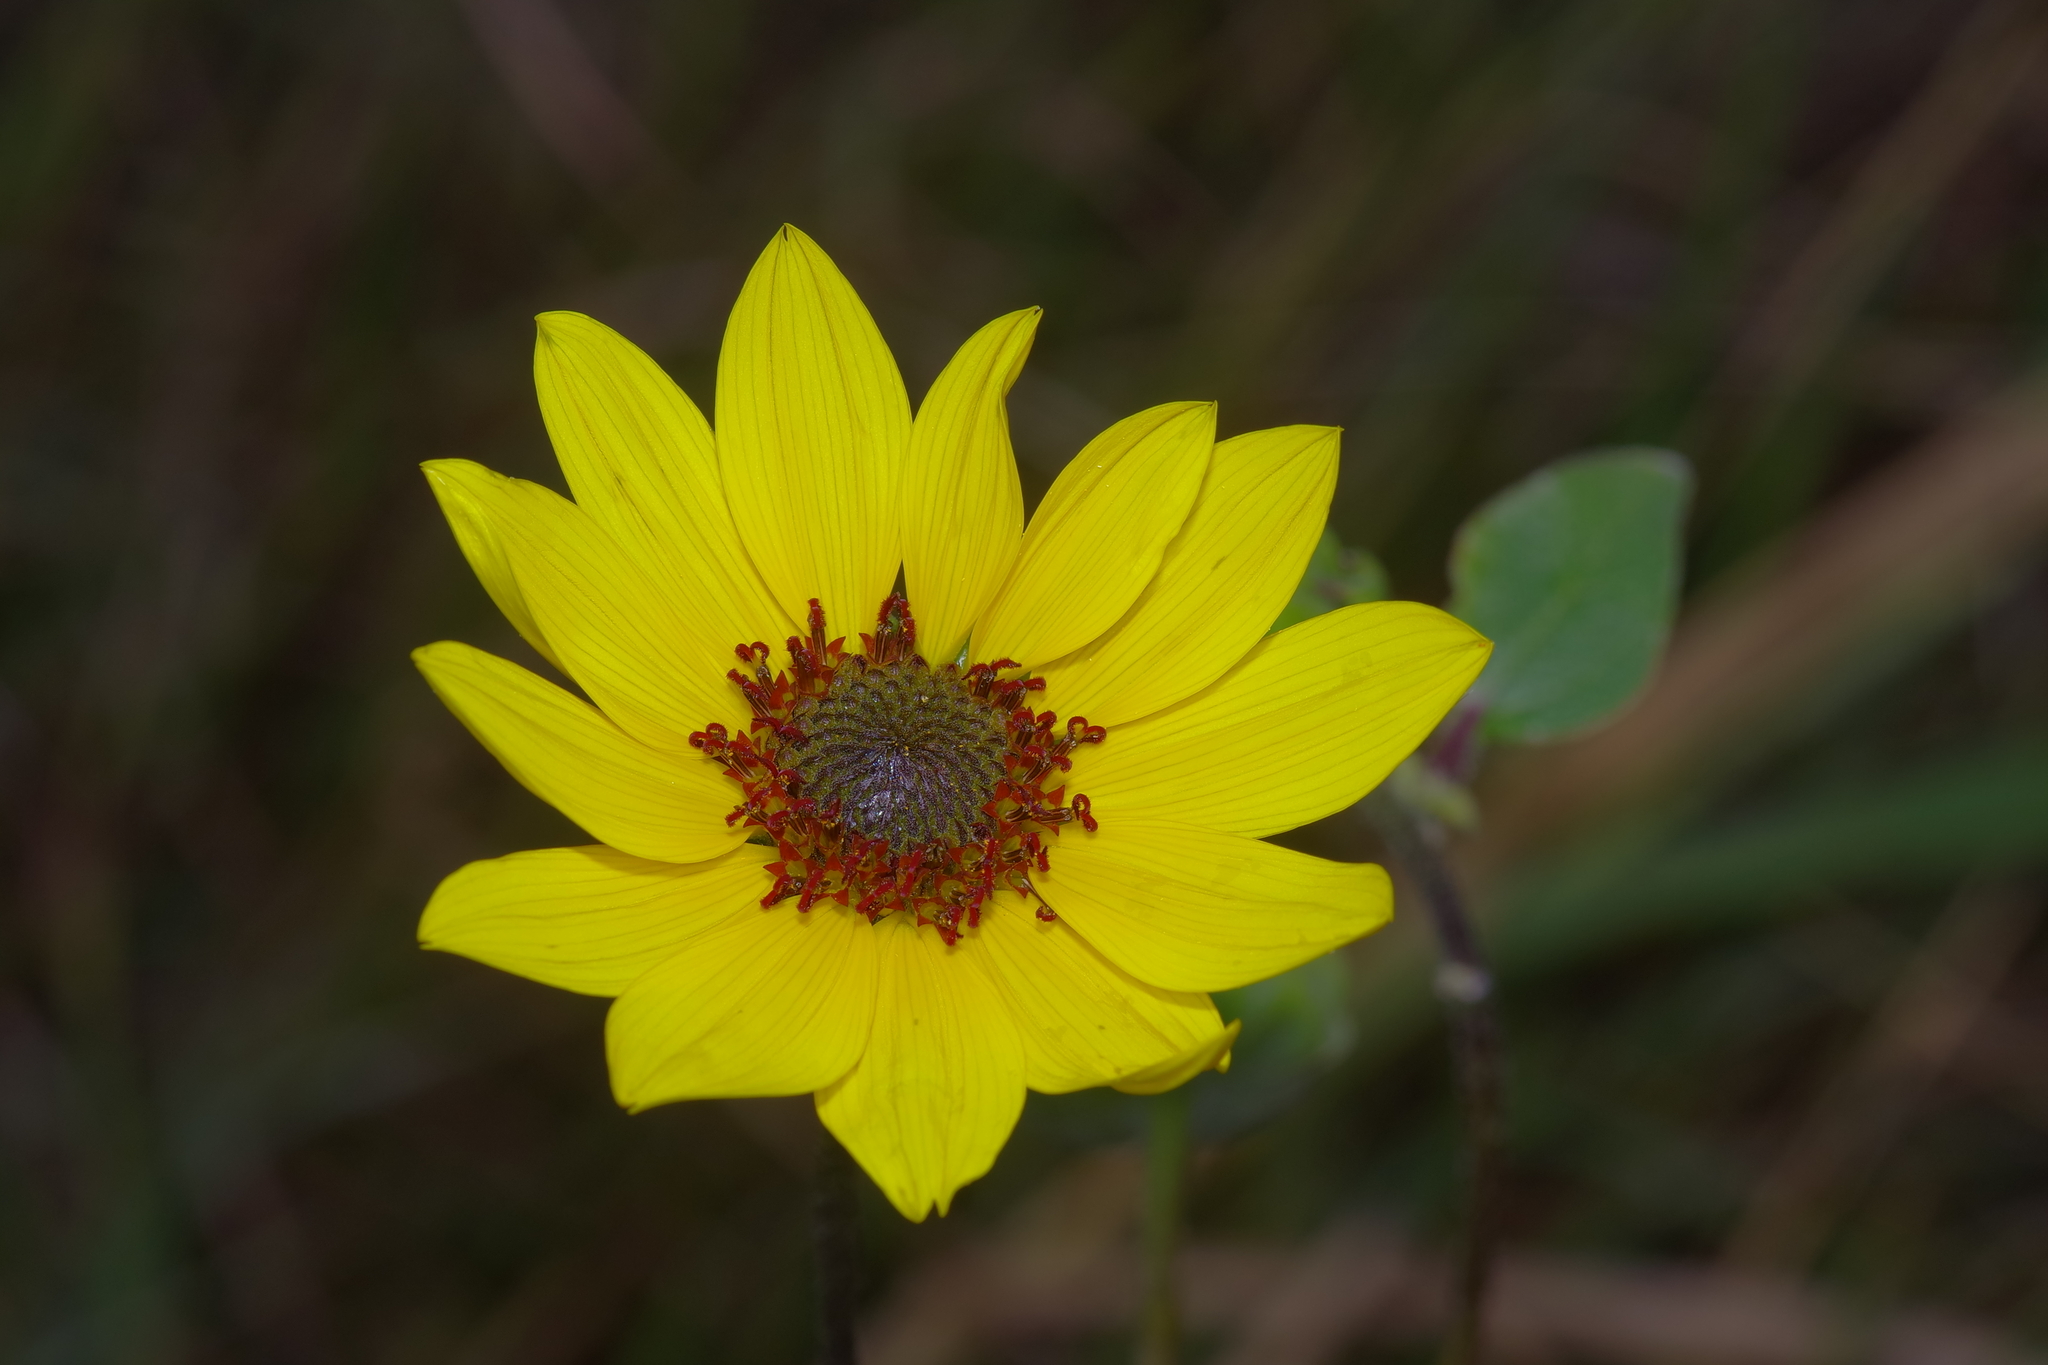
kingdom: Plantae
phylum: Tracheophyta
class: Magnoliopsida
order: Asterales
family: Asteraceae
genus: Helianthus
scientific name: Helianthus annuus
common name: Sunflower
